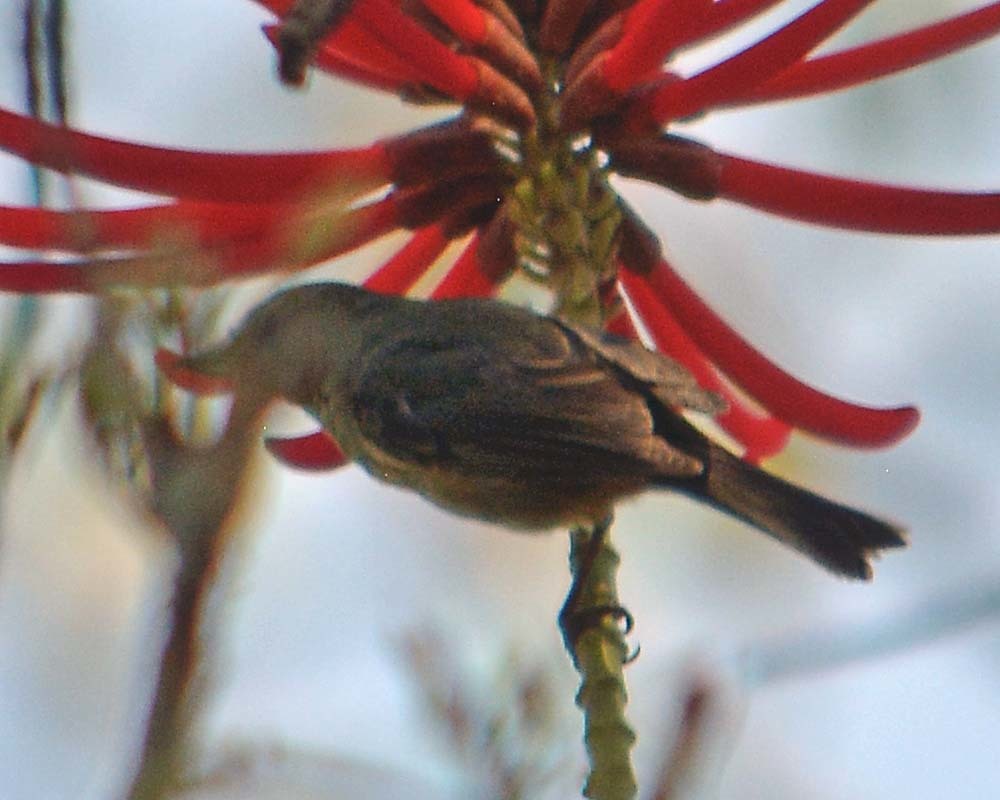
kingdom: Animalia
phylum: Chordata
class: Aves
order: Passeriformes
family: Thraupidae
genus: Diglossa
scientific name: Diglossa baritula
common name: Cinnamon-bellied flowerpiercer
